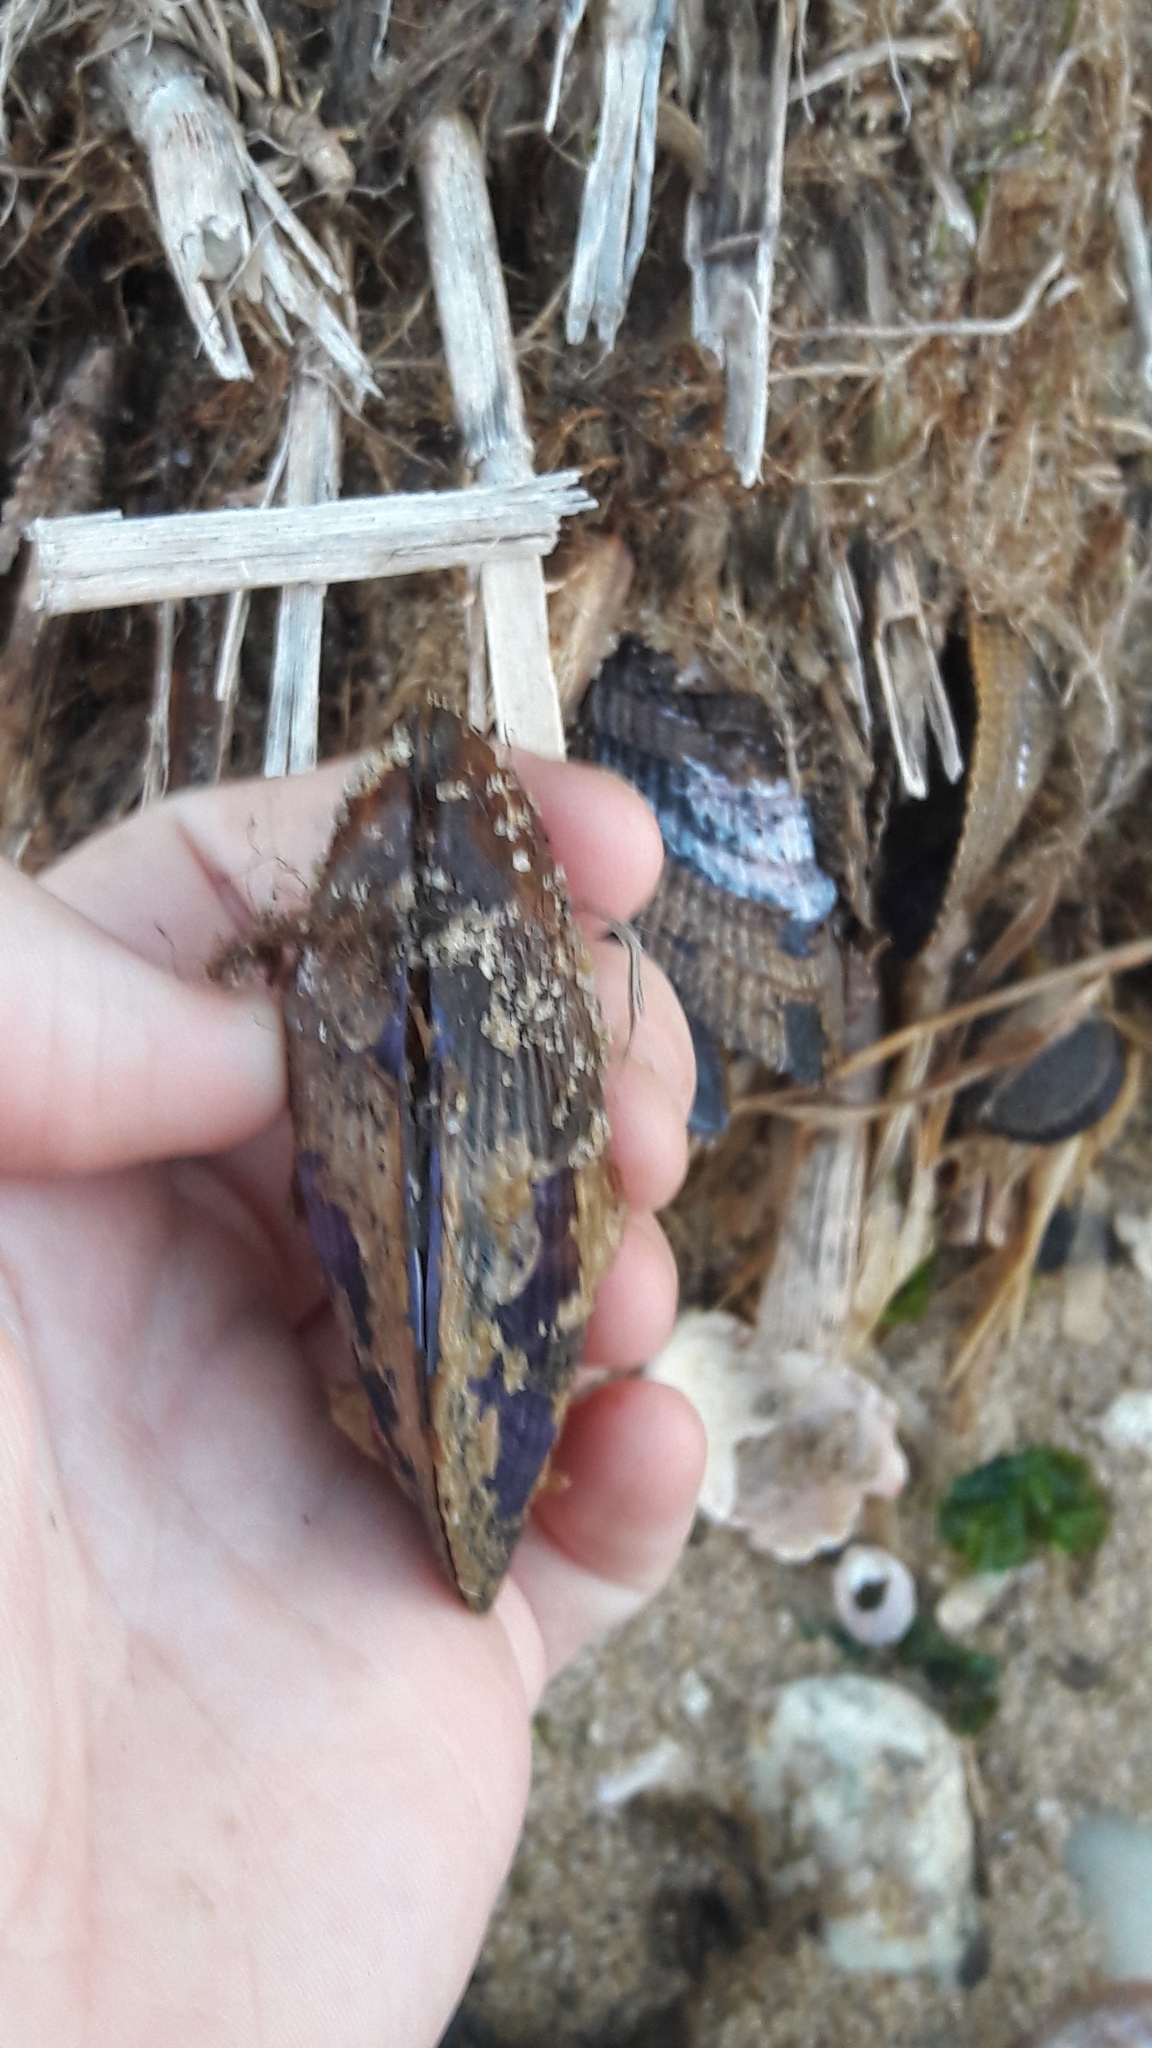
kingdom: Animalia
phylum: Mollusca
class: Bivalvia
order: Mytilida
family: Mytilidae
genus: Geukensia
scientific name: Geukensia demissa
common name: Ribbed mussel
